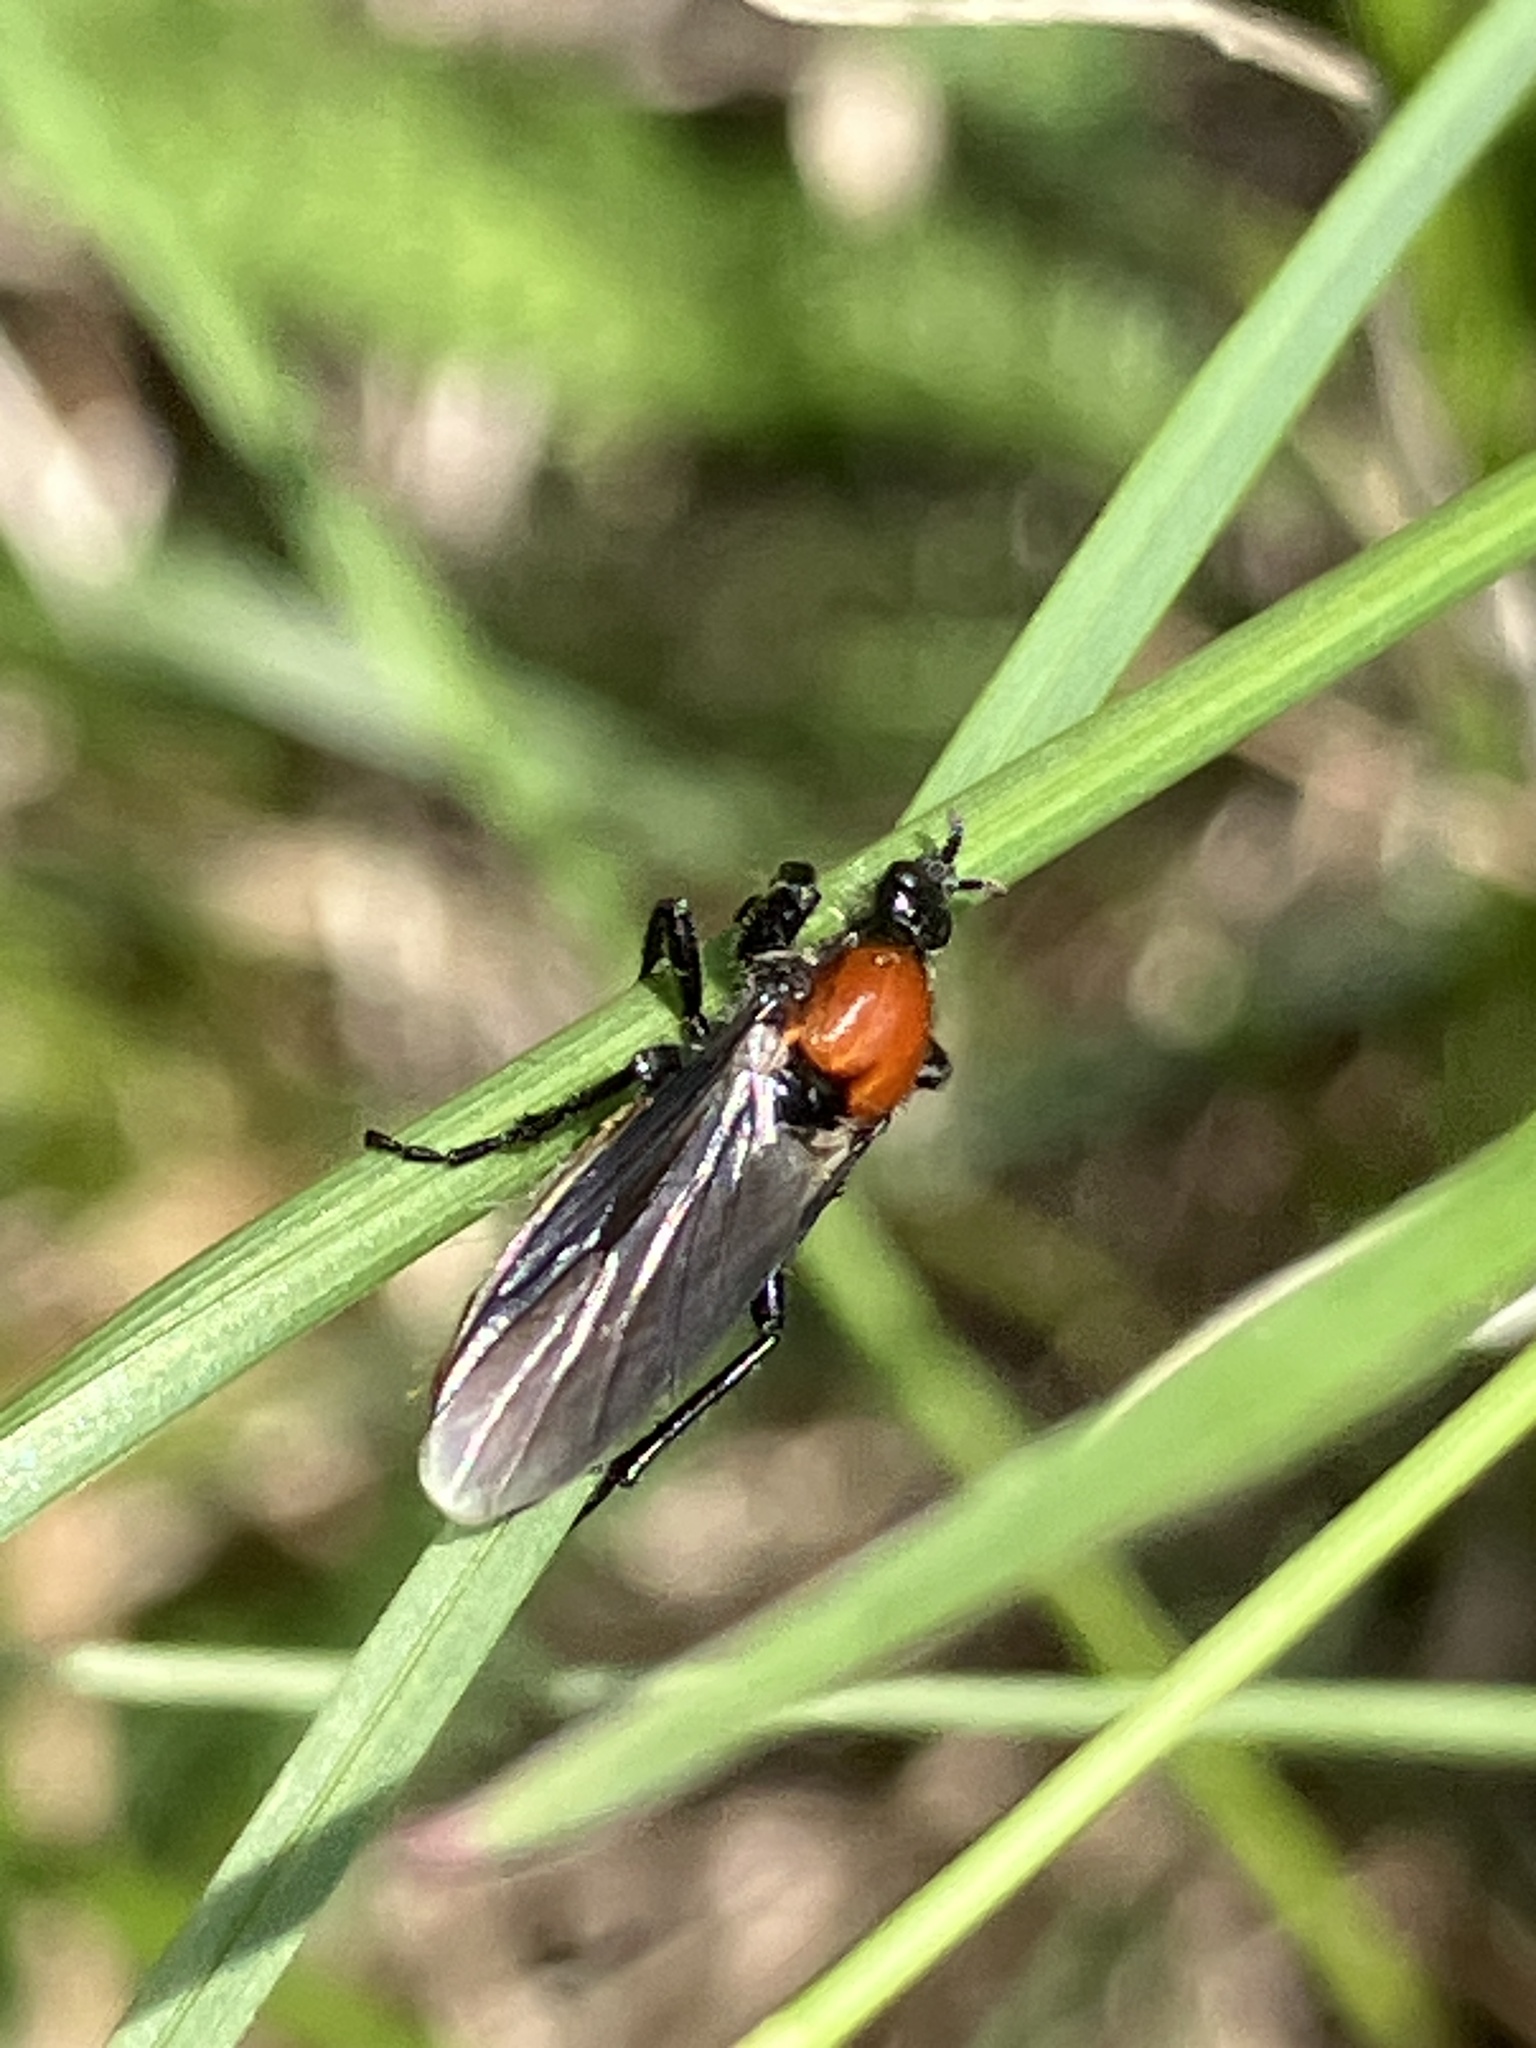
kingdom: Animalia
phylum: Arthropoda
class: Insecta
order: Diptera
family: Bibionidae
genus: Bibio
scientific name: Bibio hortulanus
